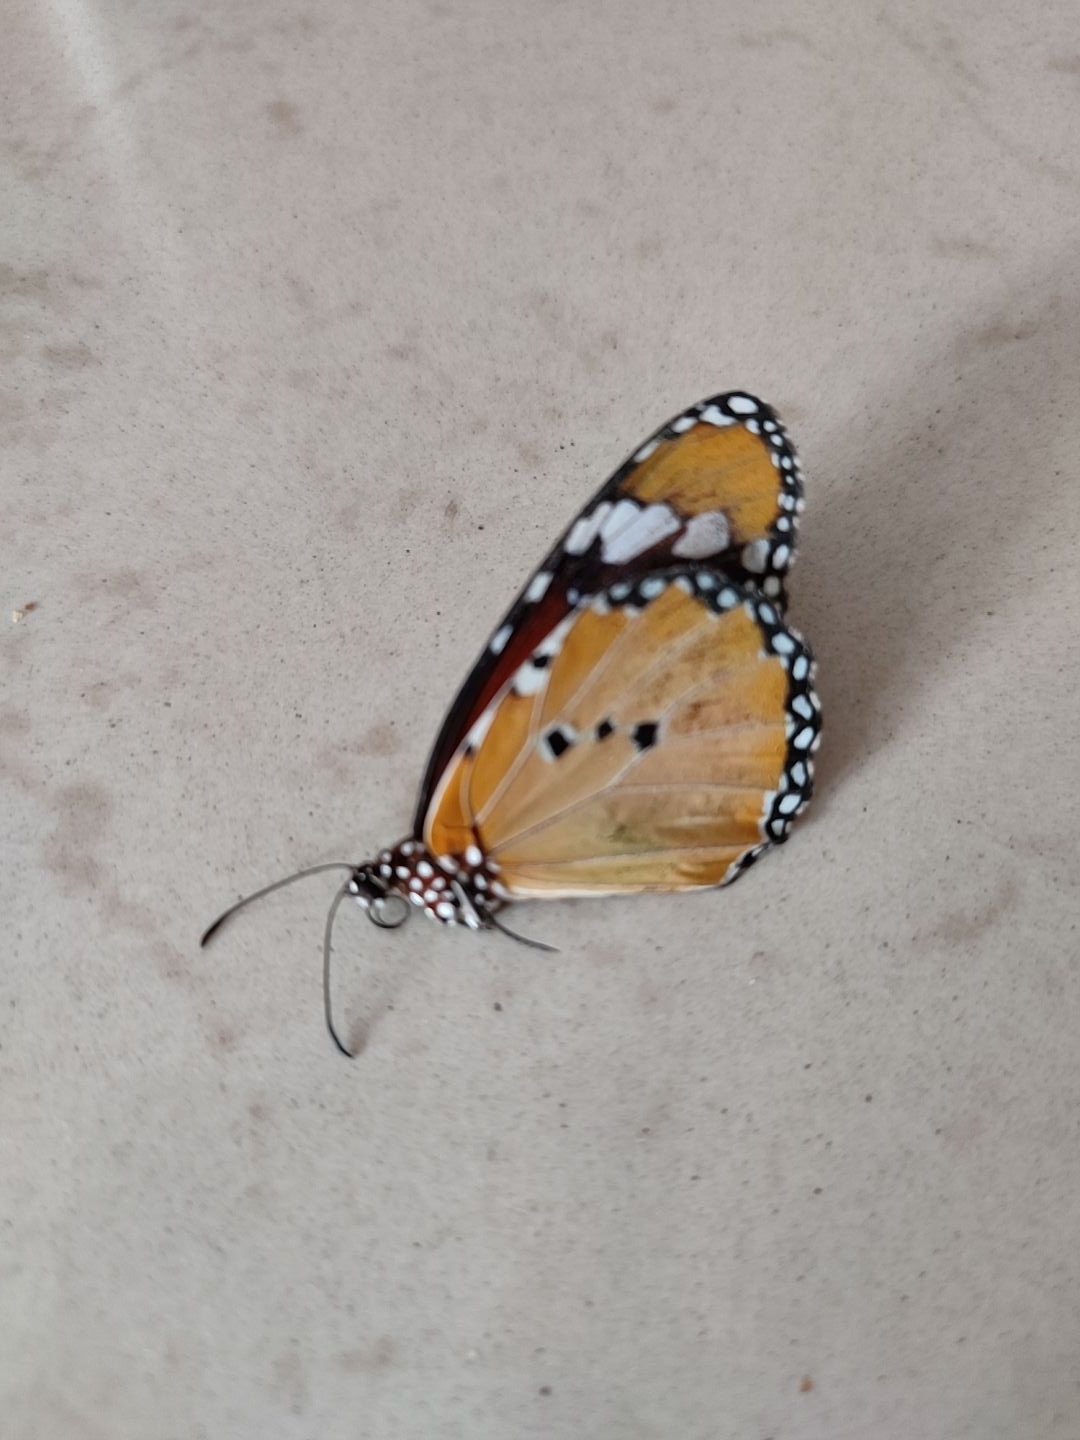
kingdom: Animalia
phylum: Arthropoda
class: Insecta
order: Lepidoptera
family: Nymphalidae
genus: Danaus
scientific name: Danaus chrysippus
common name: Plain tiger
